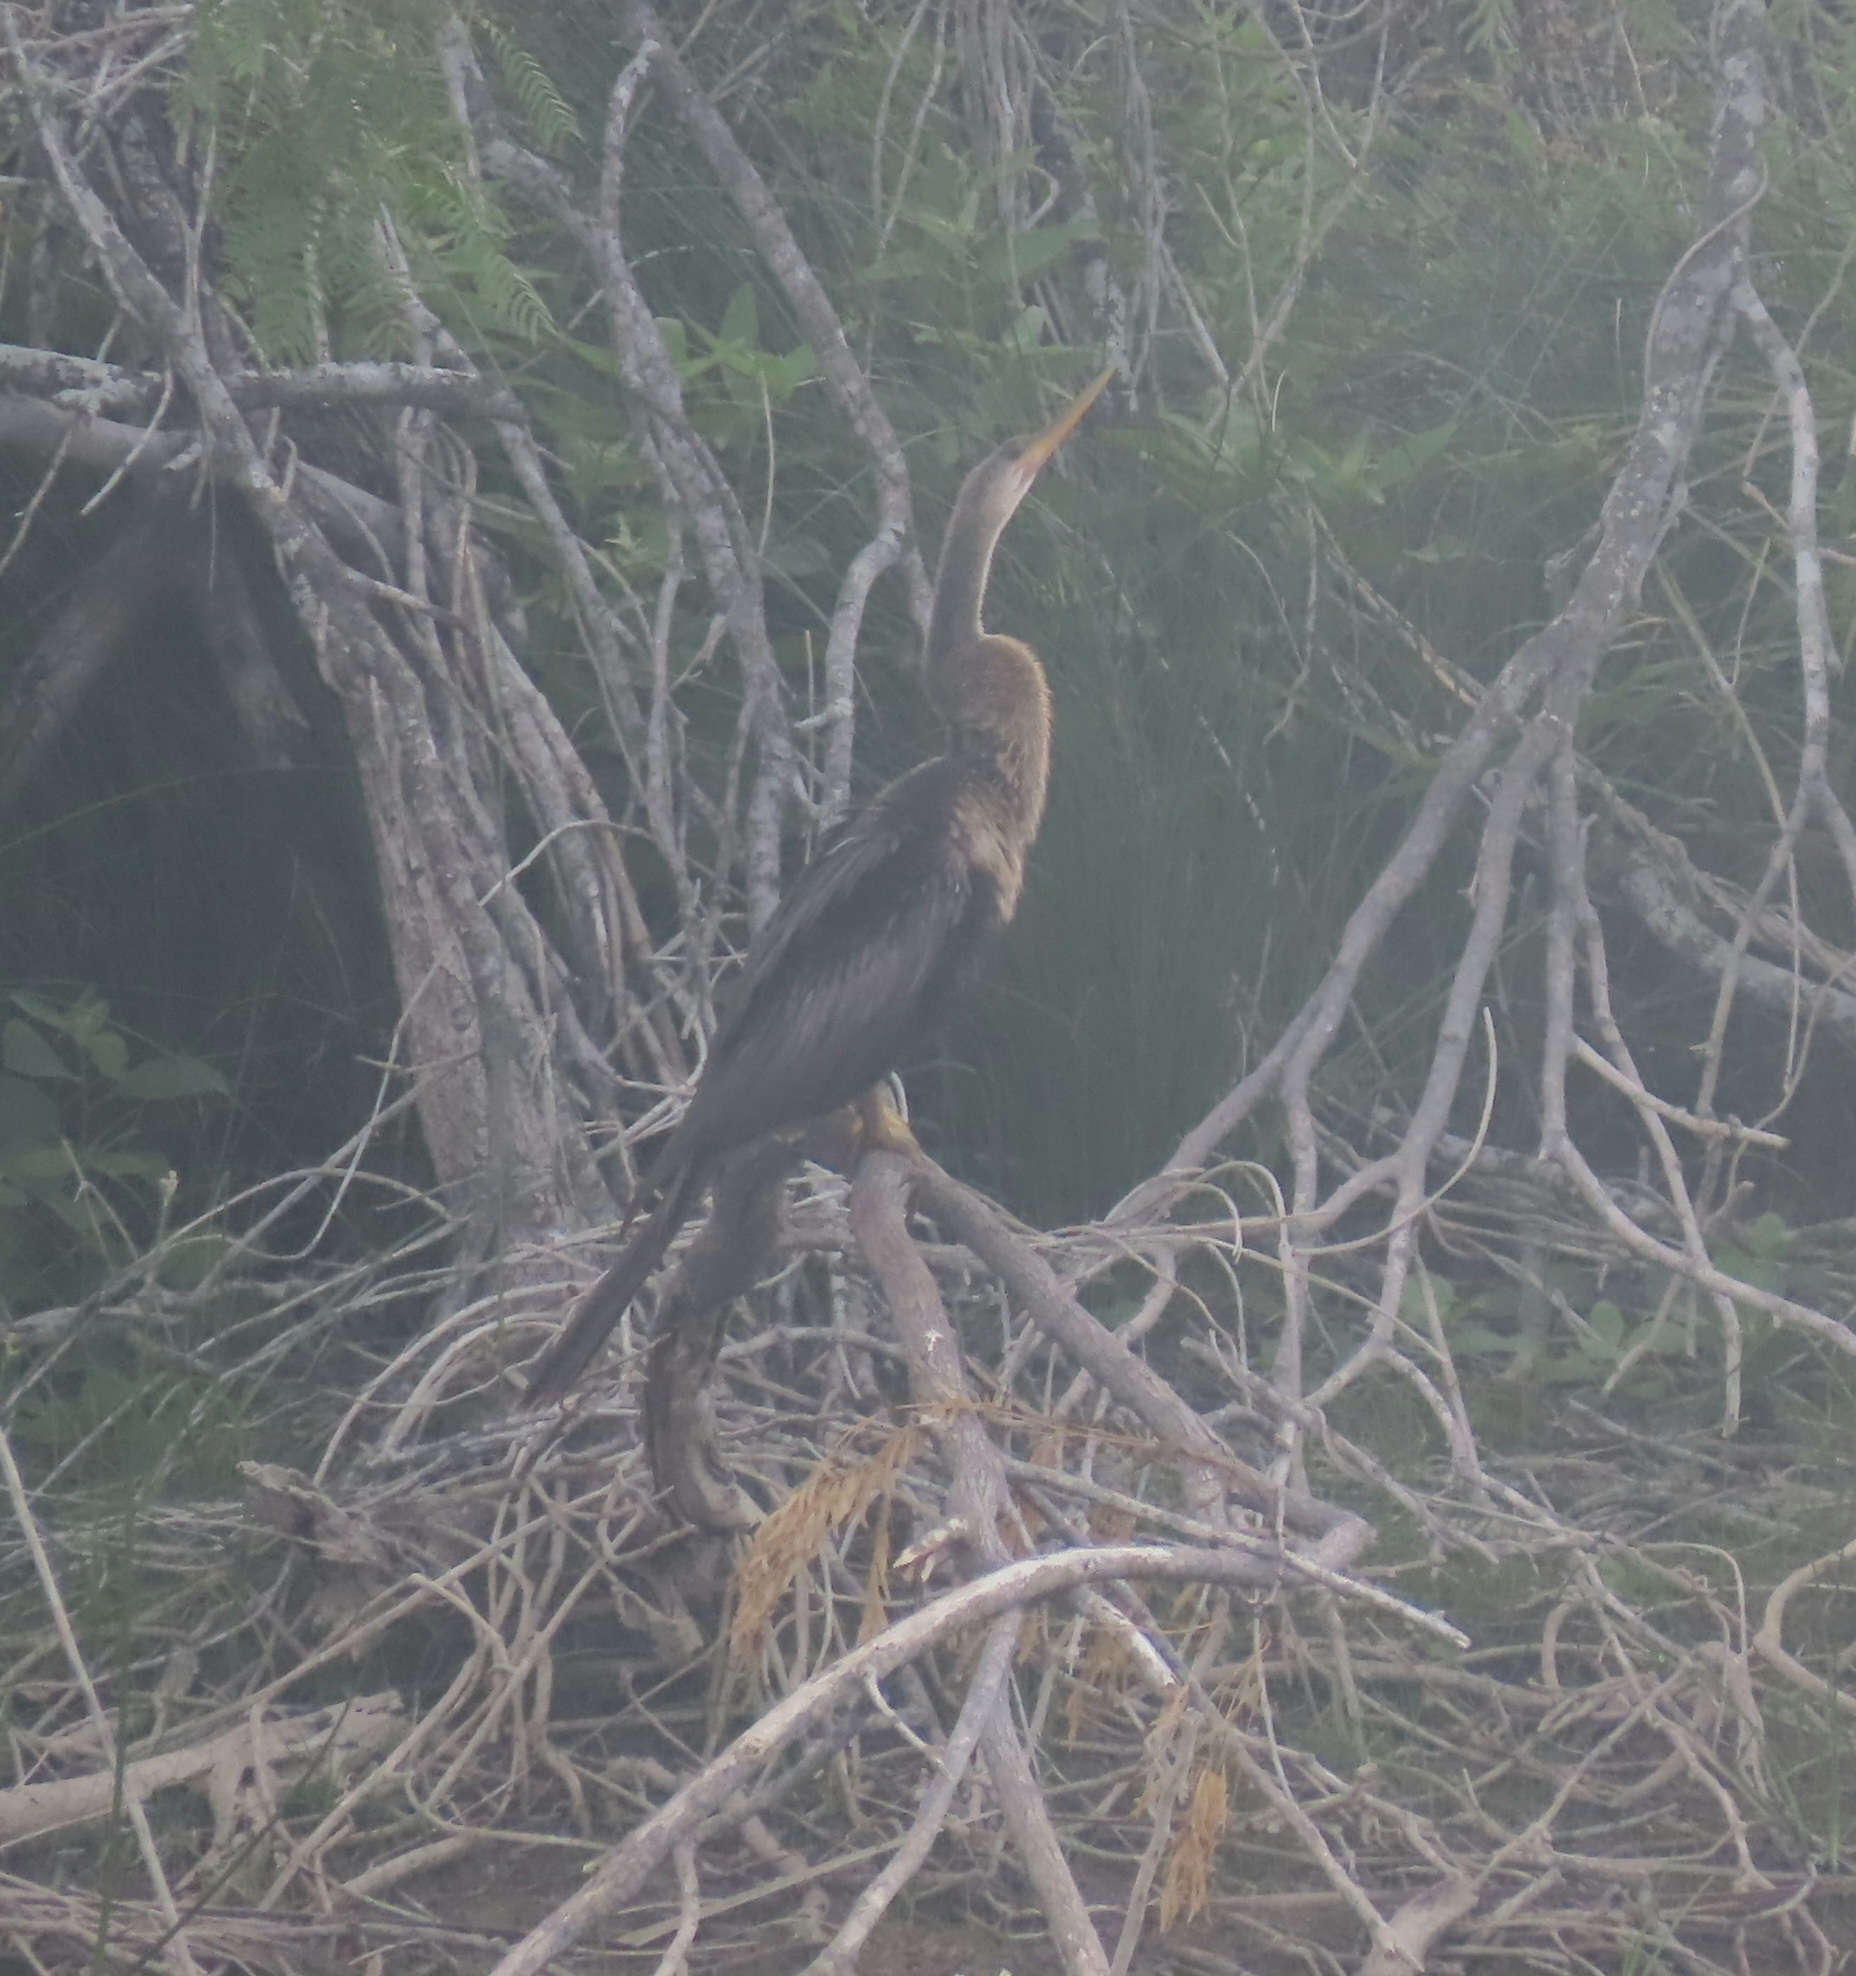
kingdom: Animalia
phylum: Chordata
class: Aves
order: Suliformes
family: Anhingidae
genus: Anhinga
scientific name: Anhinga anhinga
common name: Anhinga
